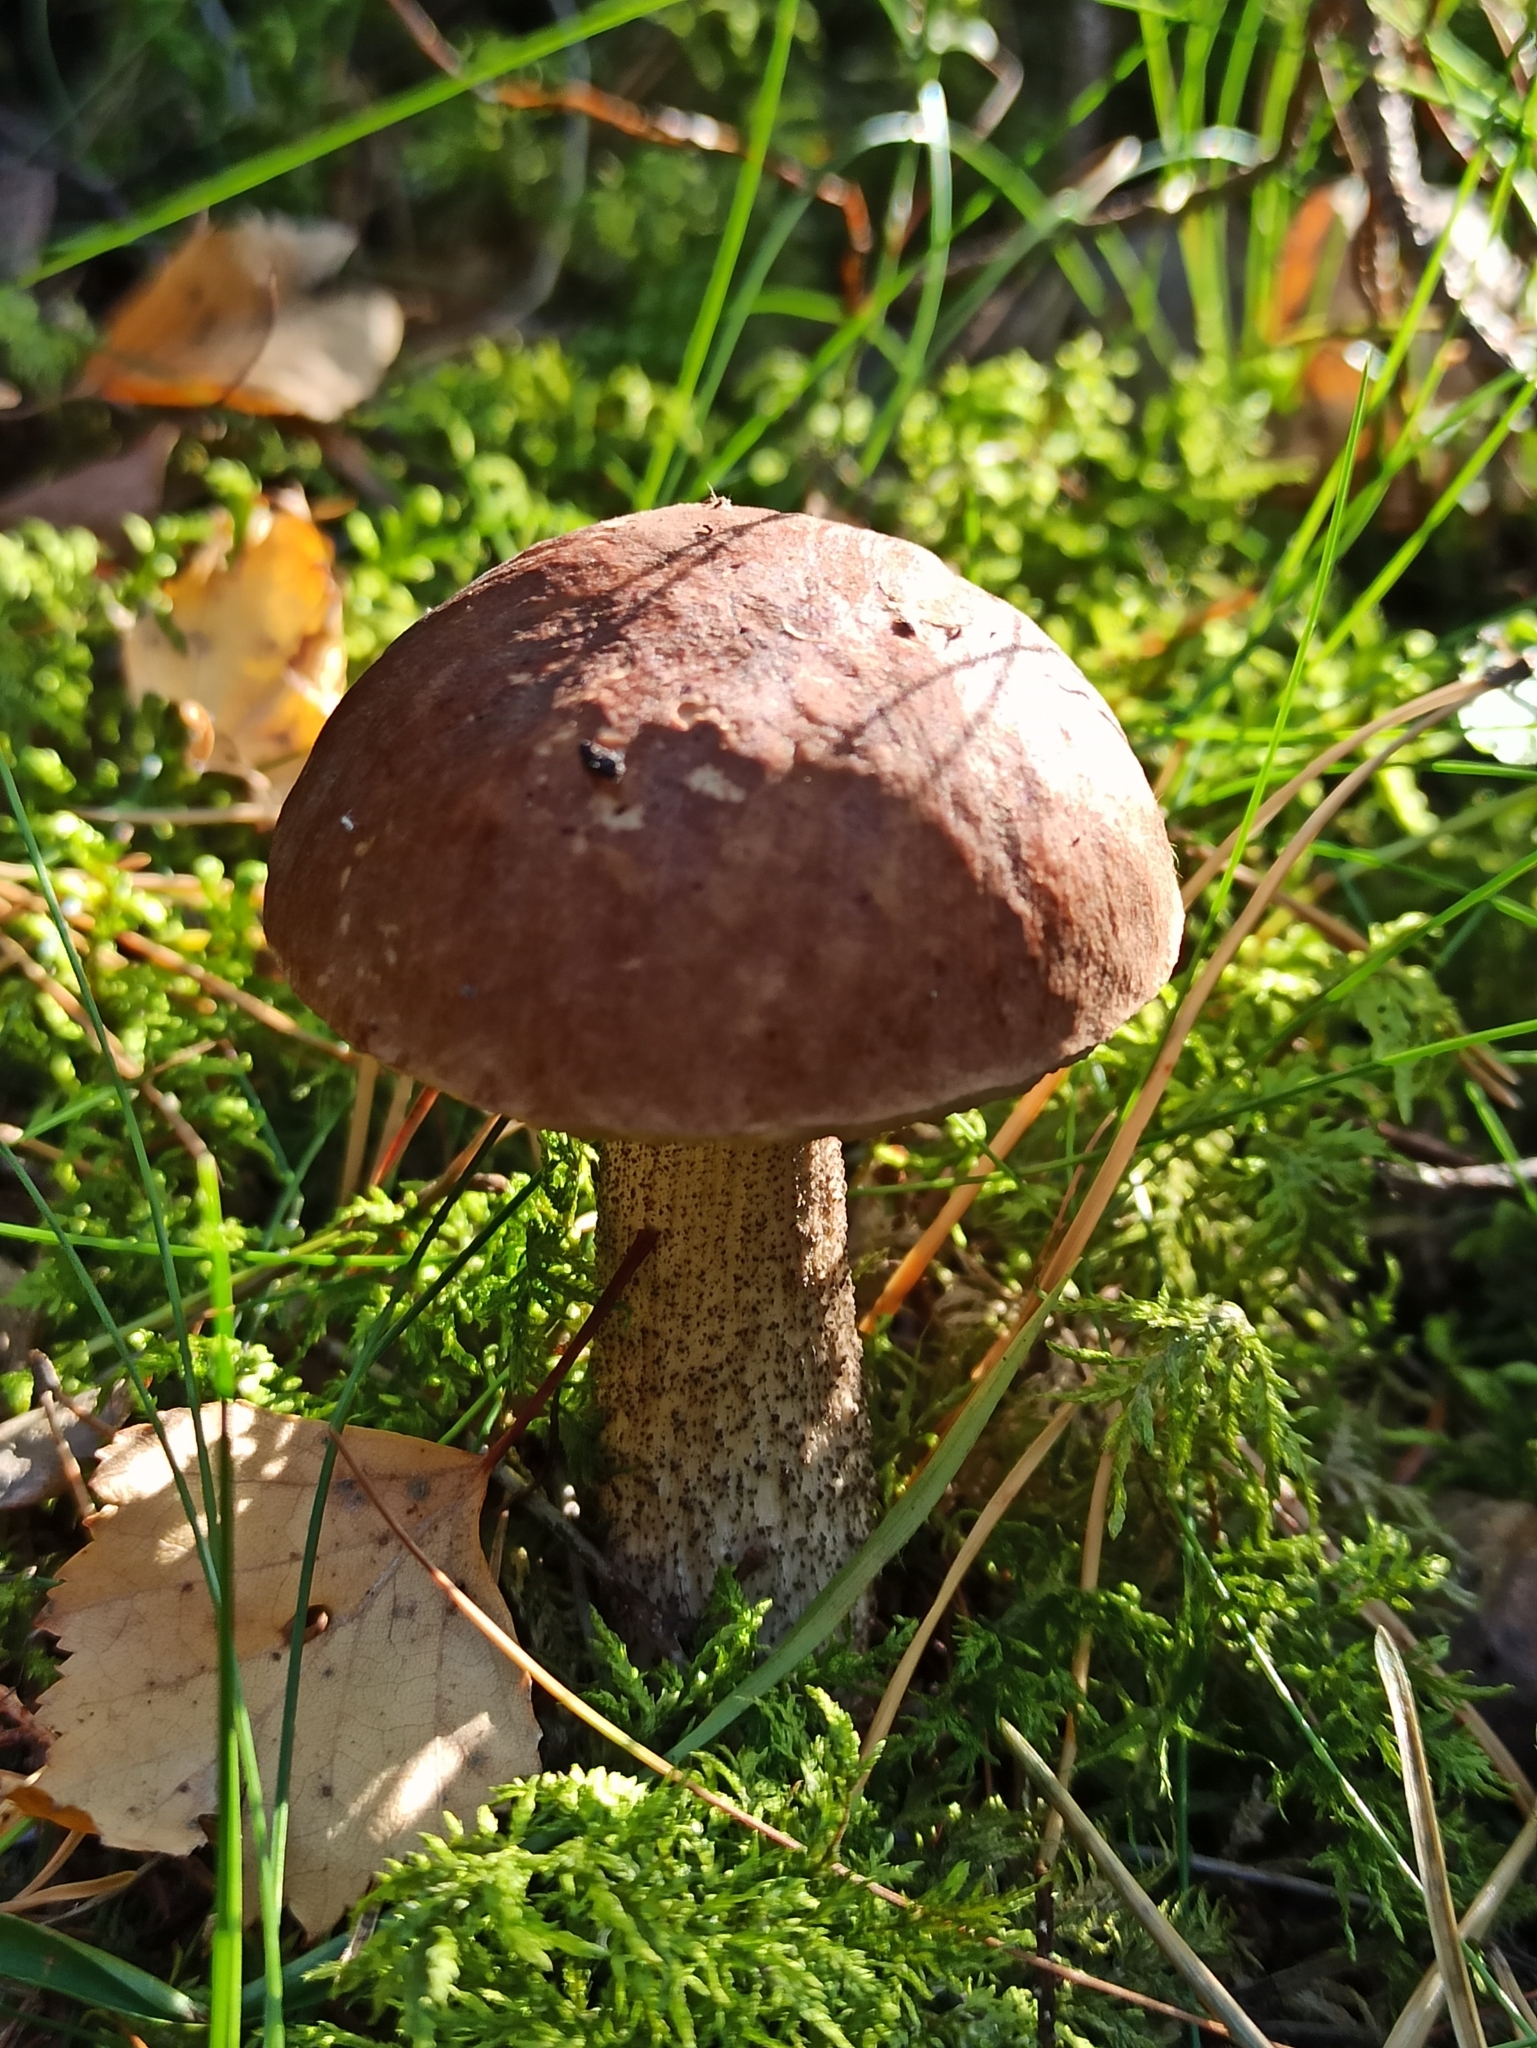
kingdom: Fungi
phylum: Basidiomycota
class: Agaricomycetes
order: Boletales
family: Boletaceae
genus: Leccinum
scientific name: Leccinum scabrum
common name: Blushing bolete
